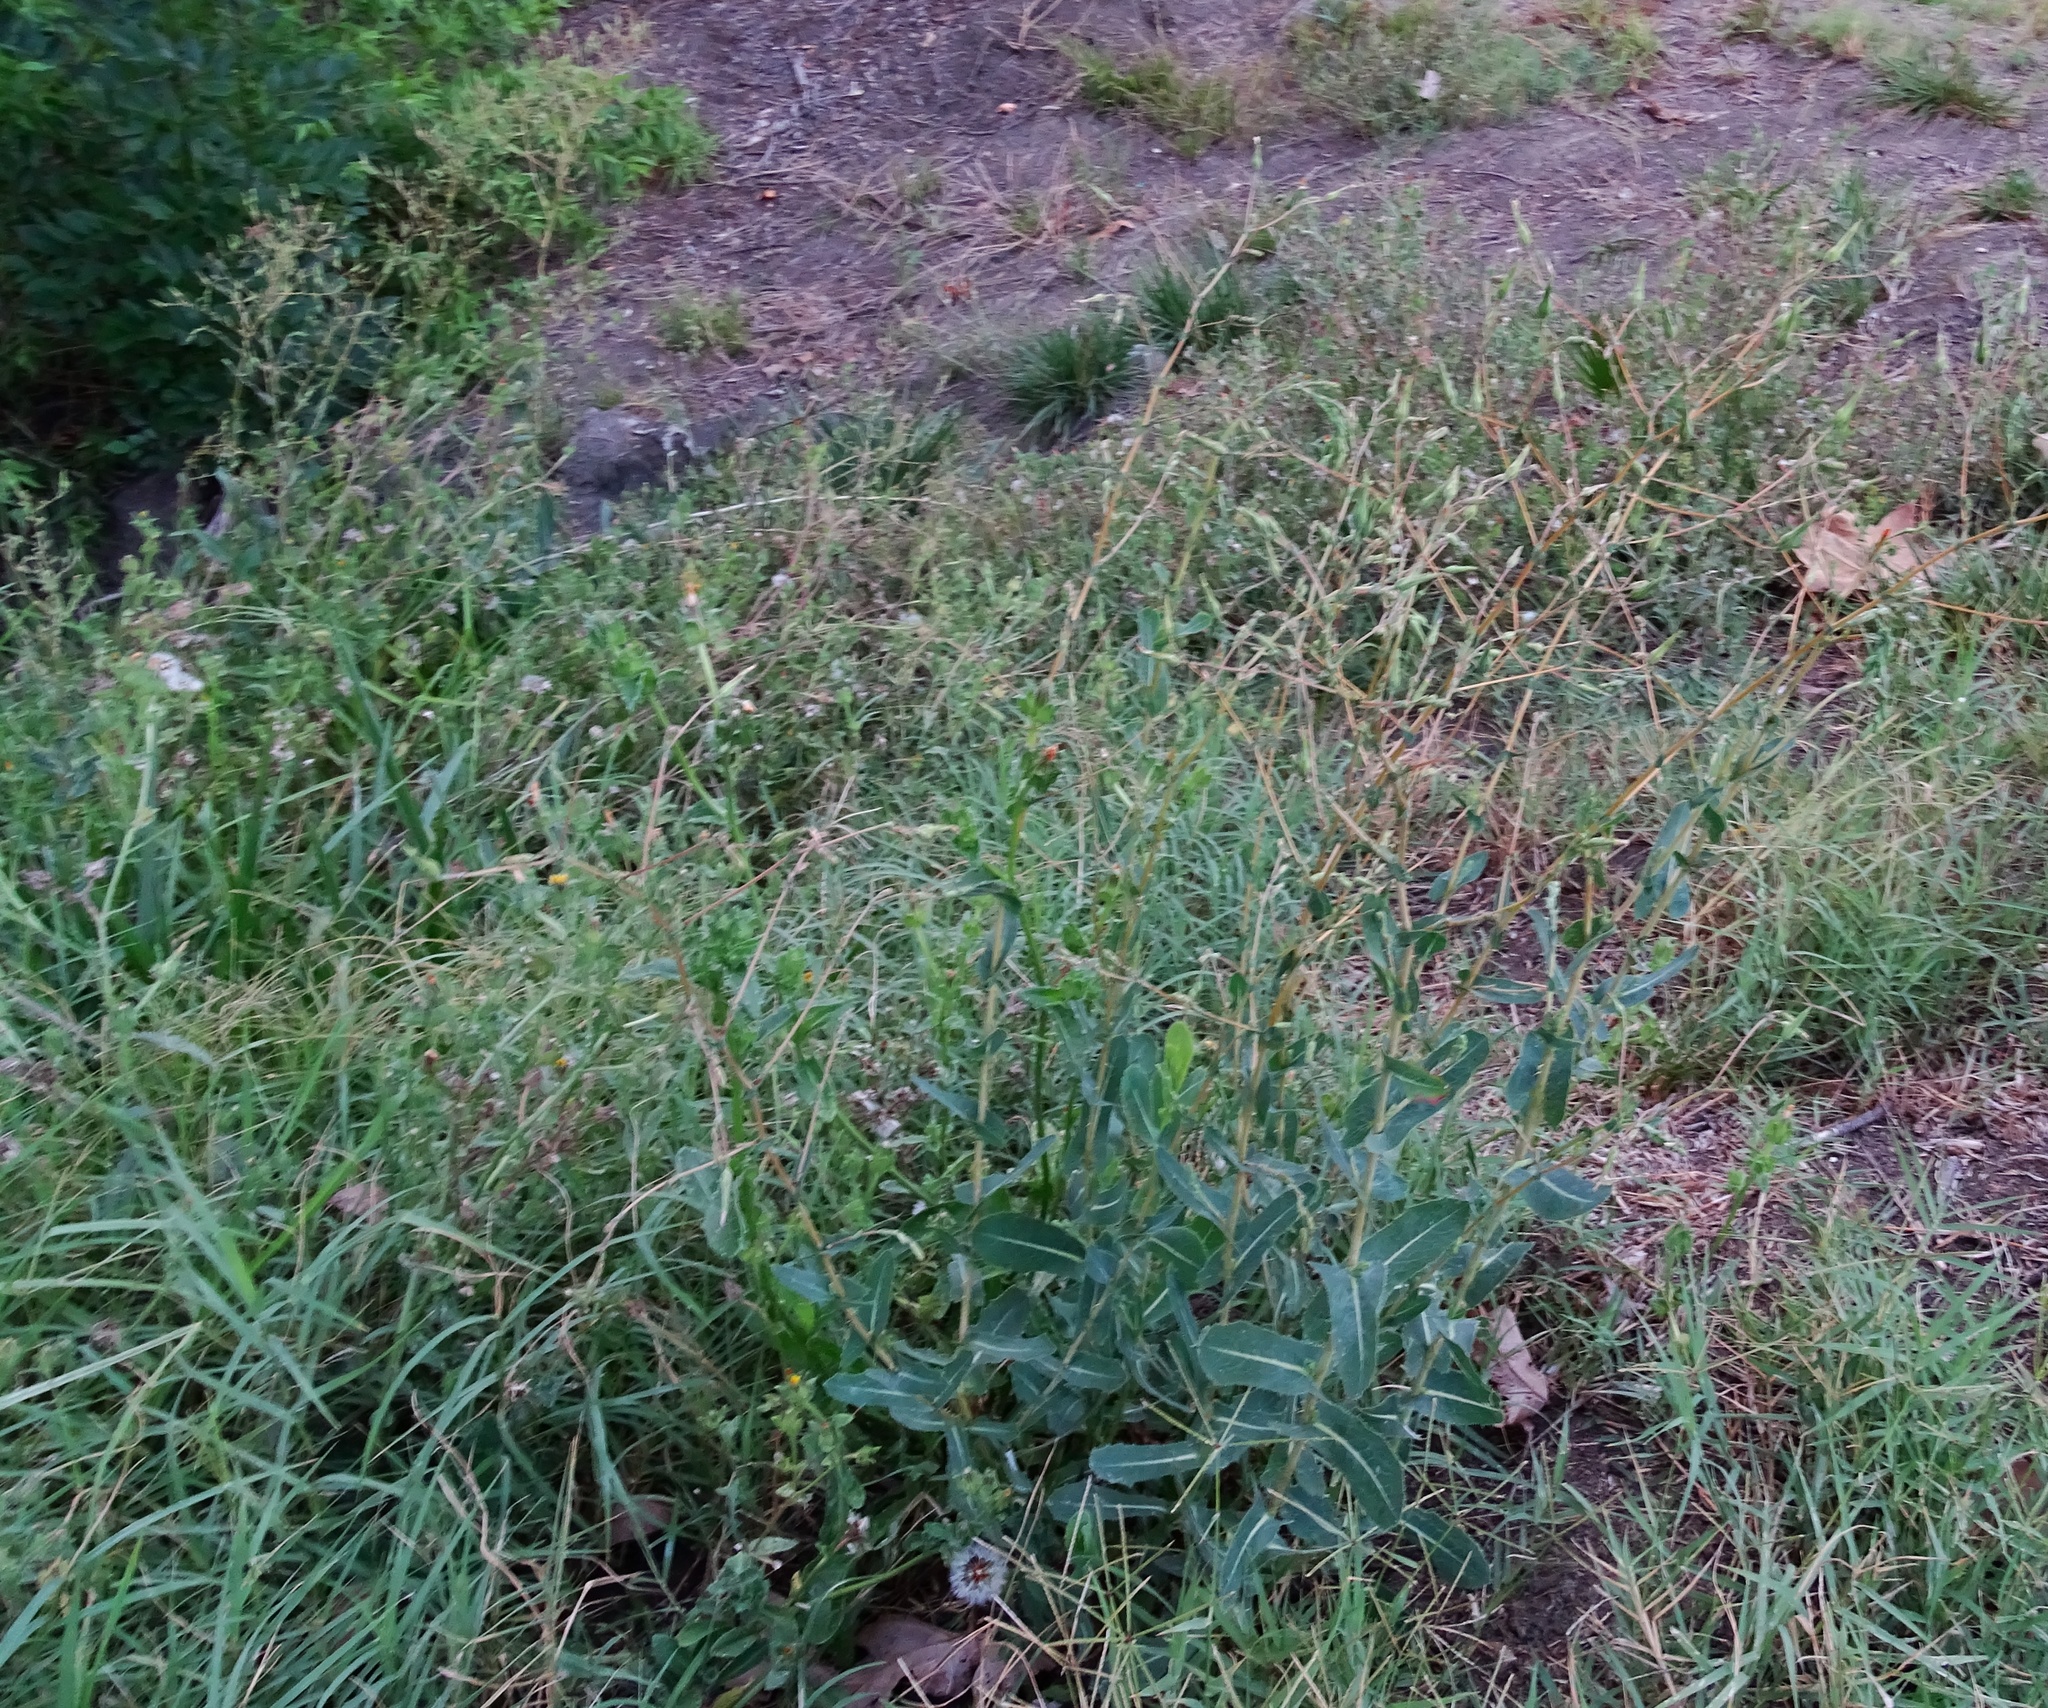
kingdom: Plantae
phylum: Tracheophyta
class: Magnoliopsida
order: Asterales
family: Asteraceae
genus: Lactuca
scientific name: Lactuca serriola
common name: Prickly lettuce
